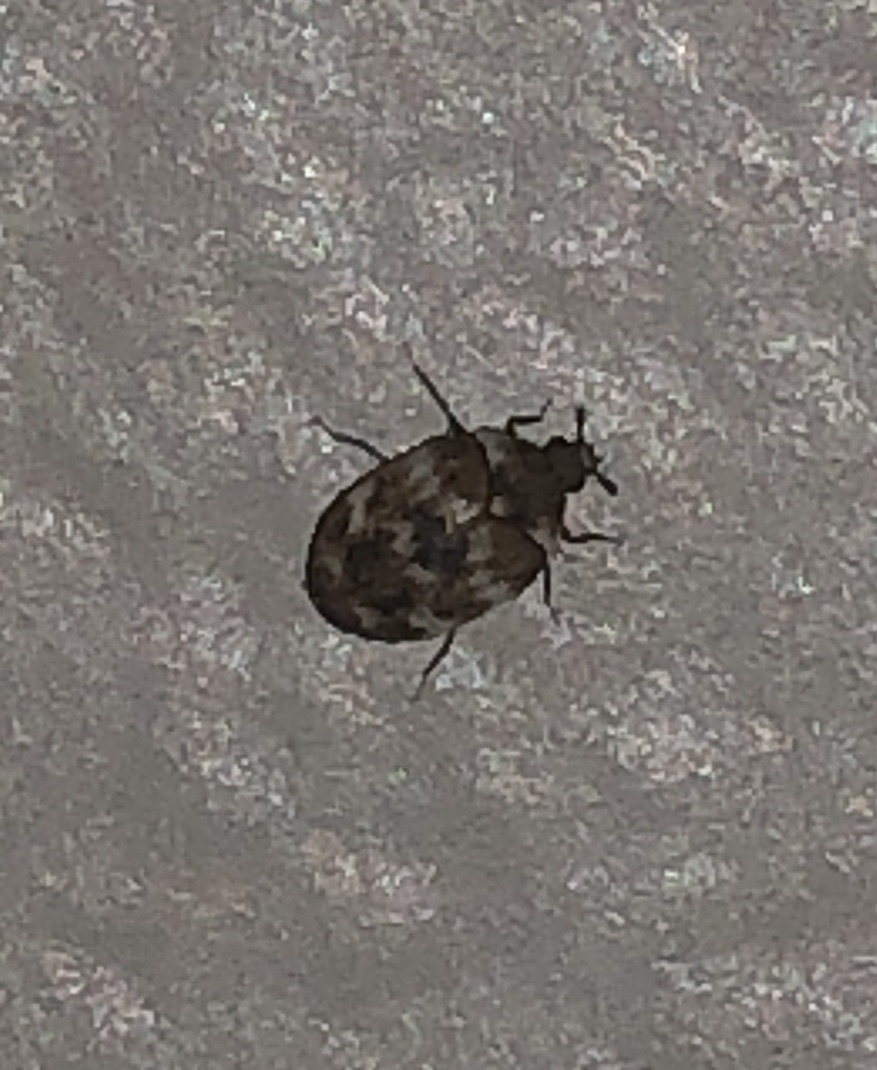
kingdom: Animalia
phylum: Arthropoda
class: Insecta
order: Coleoptera
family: Dermestidae
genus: Anthrenus
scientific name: Anthrenus verbasci
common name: Varied carpet beetle
